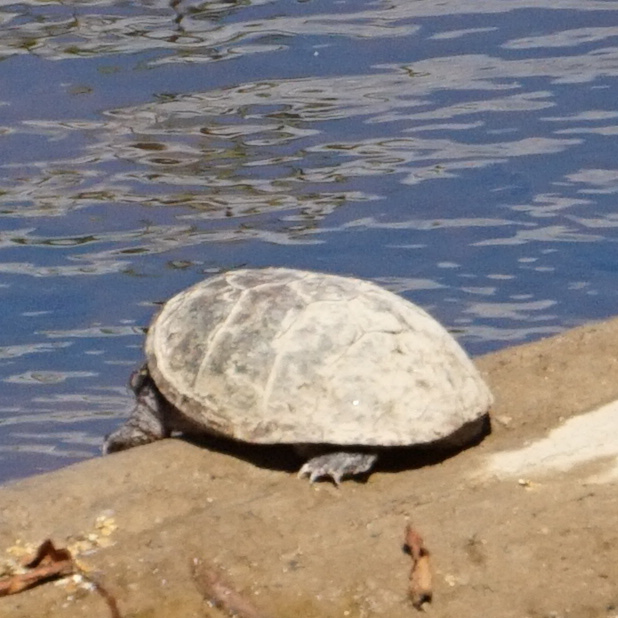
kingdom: Animalia
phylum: Chordata
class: Testudines
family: Kinosternidae
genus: Sternotherus
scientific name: Sternotherus odoratus
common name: Common musk turtle
